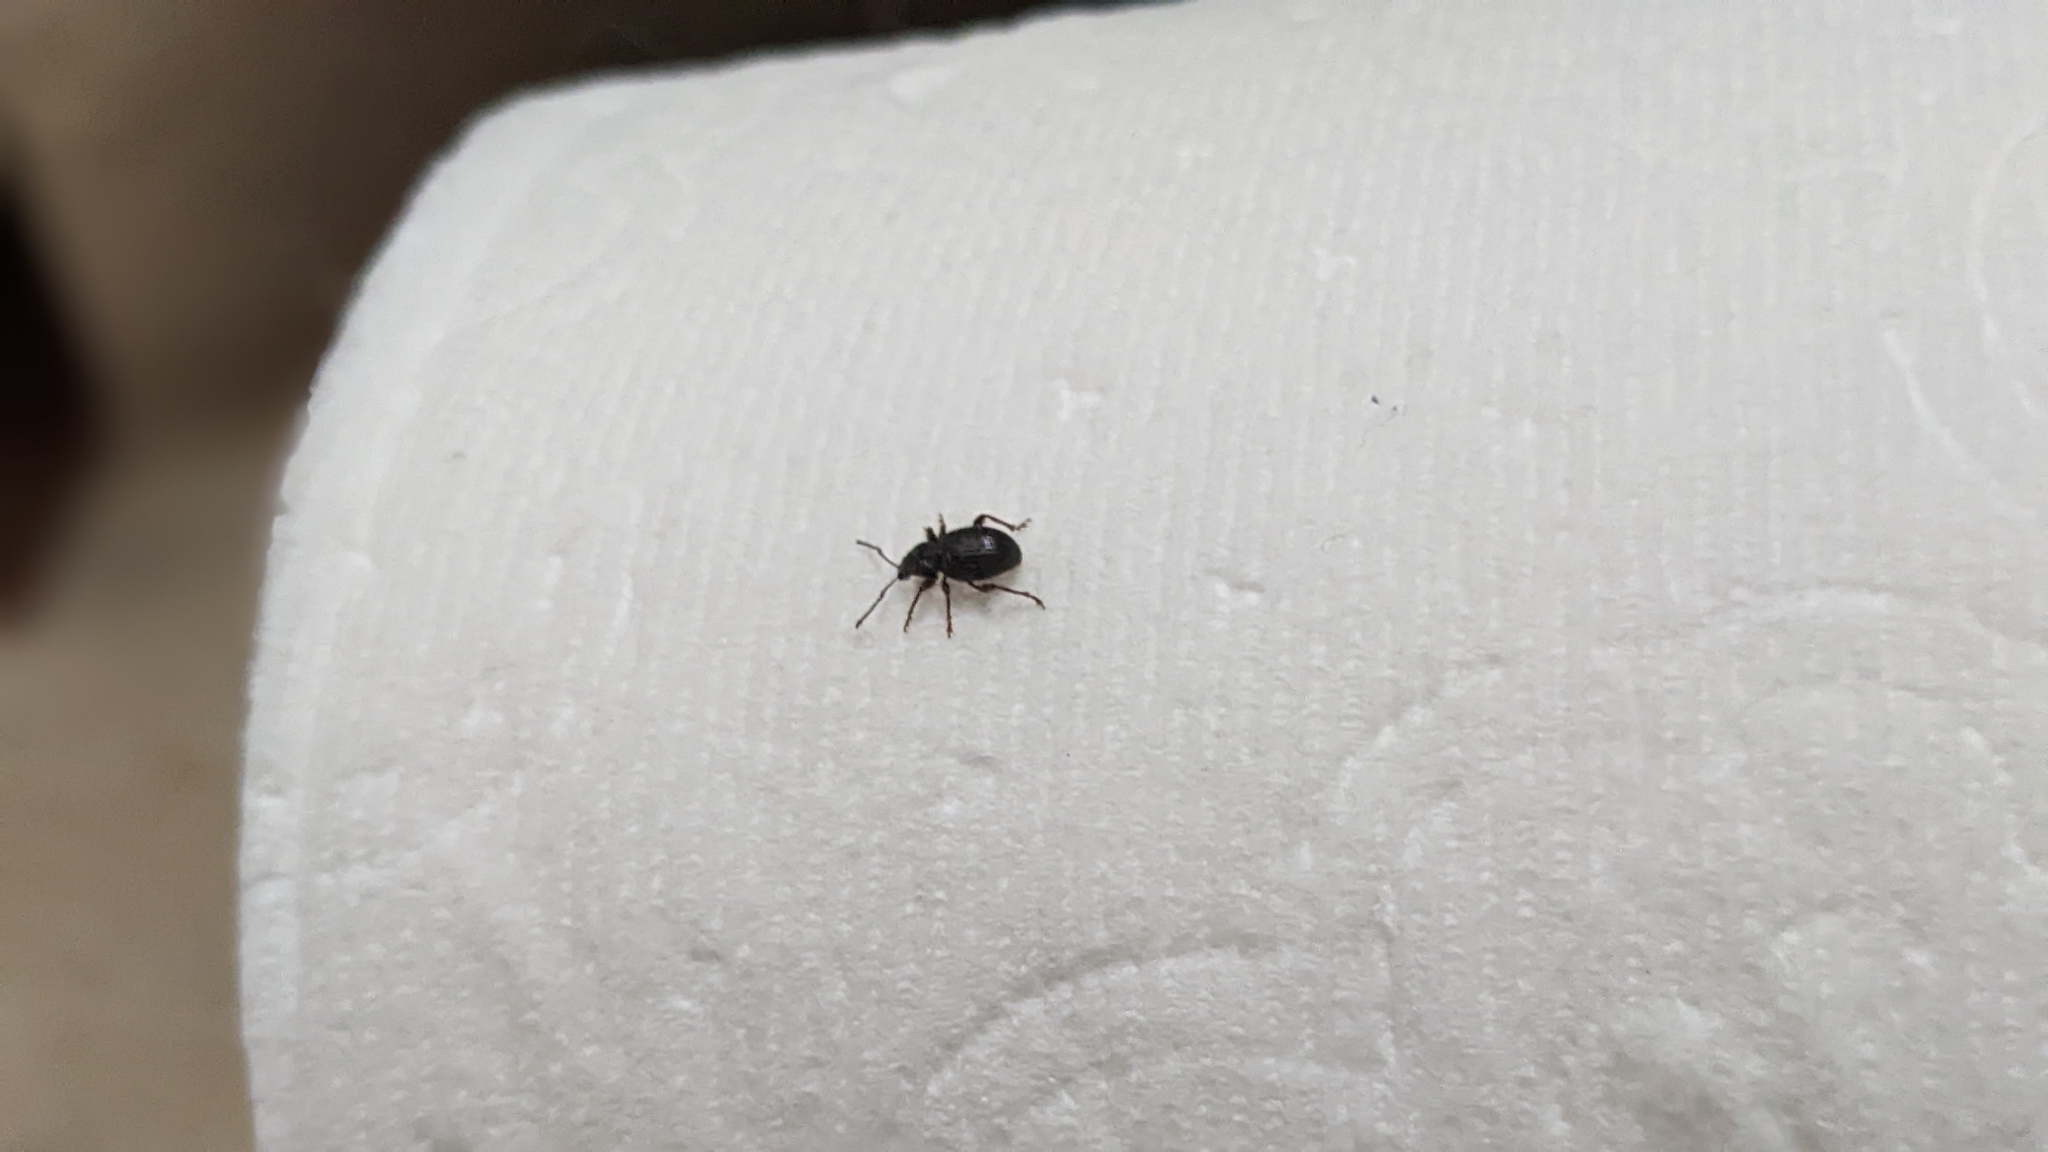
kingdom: Animalia
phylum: Arthropoda
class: Insecta
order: Coleoptera
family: Curculionidae
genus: Otiorhynchus
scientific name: Otiorhynchus ovatus
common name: Strawberry root weevil
